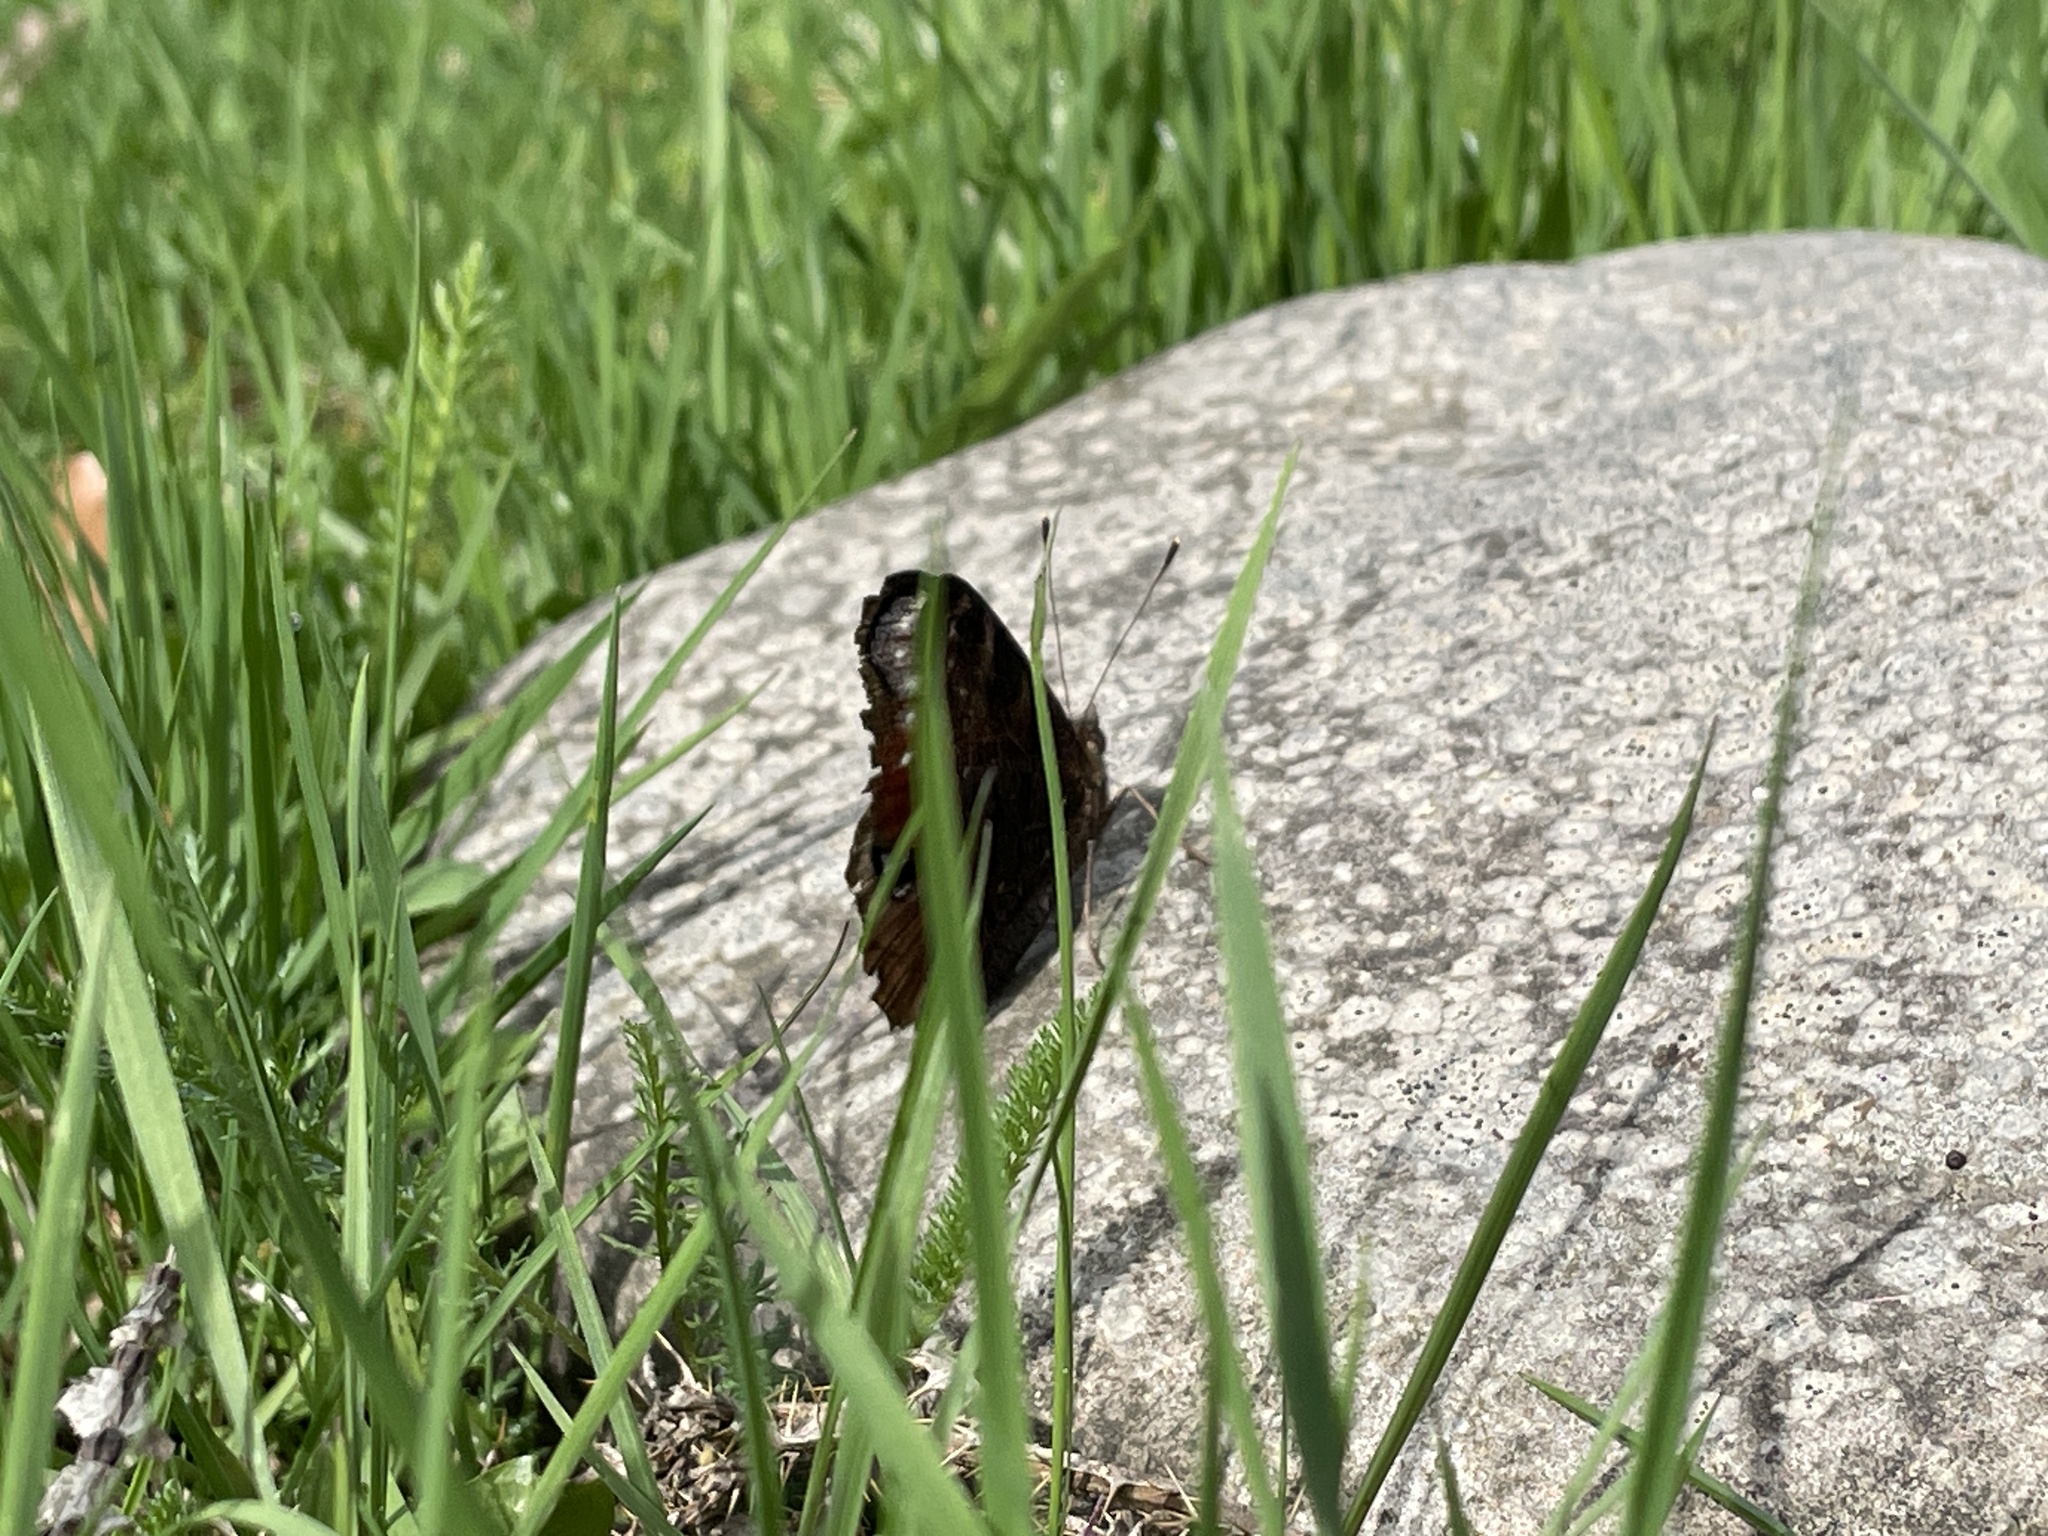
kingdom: Animalia
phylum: Arthropoda
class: Insecta
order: Lepidoptera
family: Nymphalidae
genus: Aglais
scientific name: Aglais io
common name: Peacock
